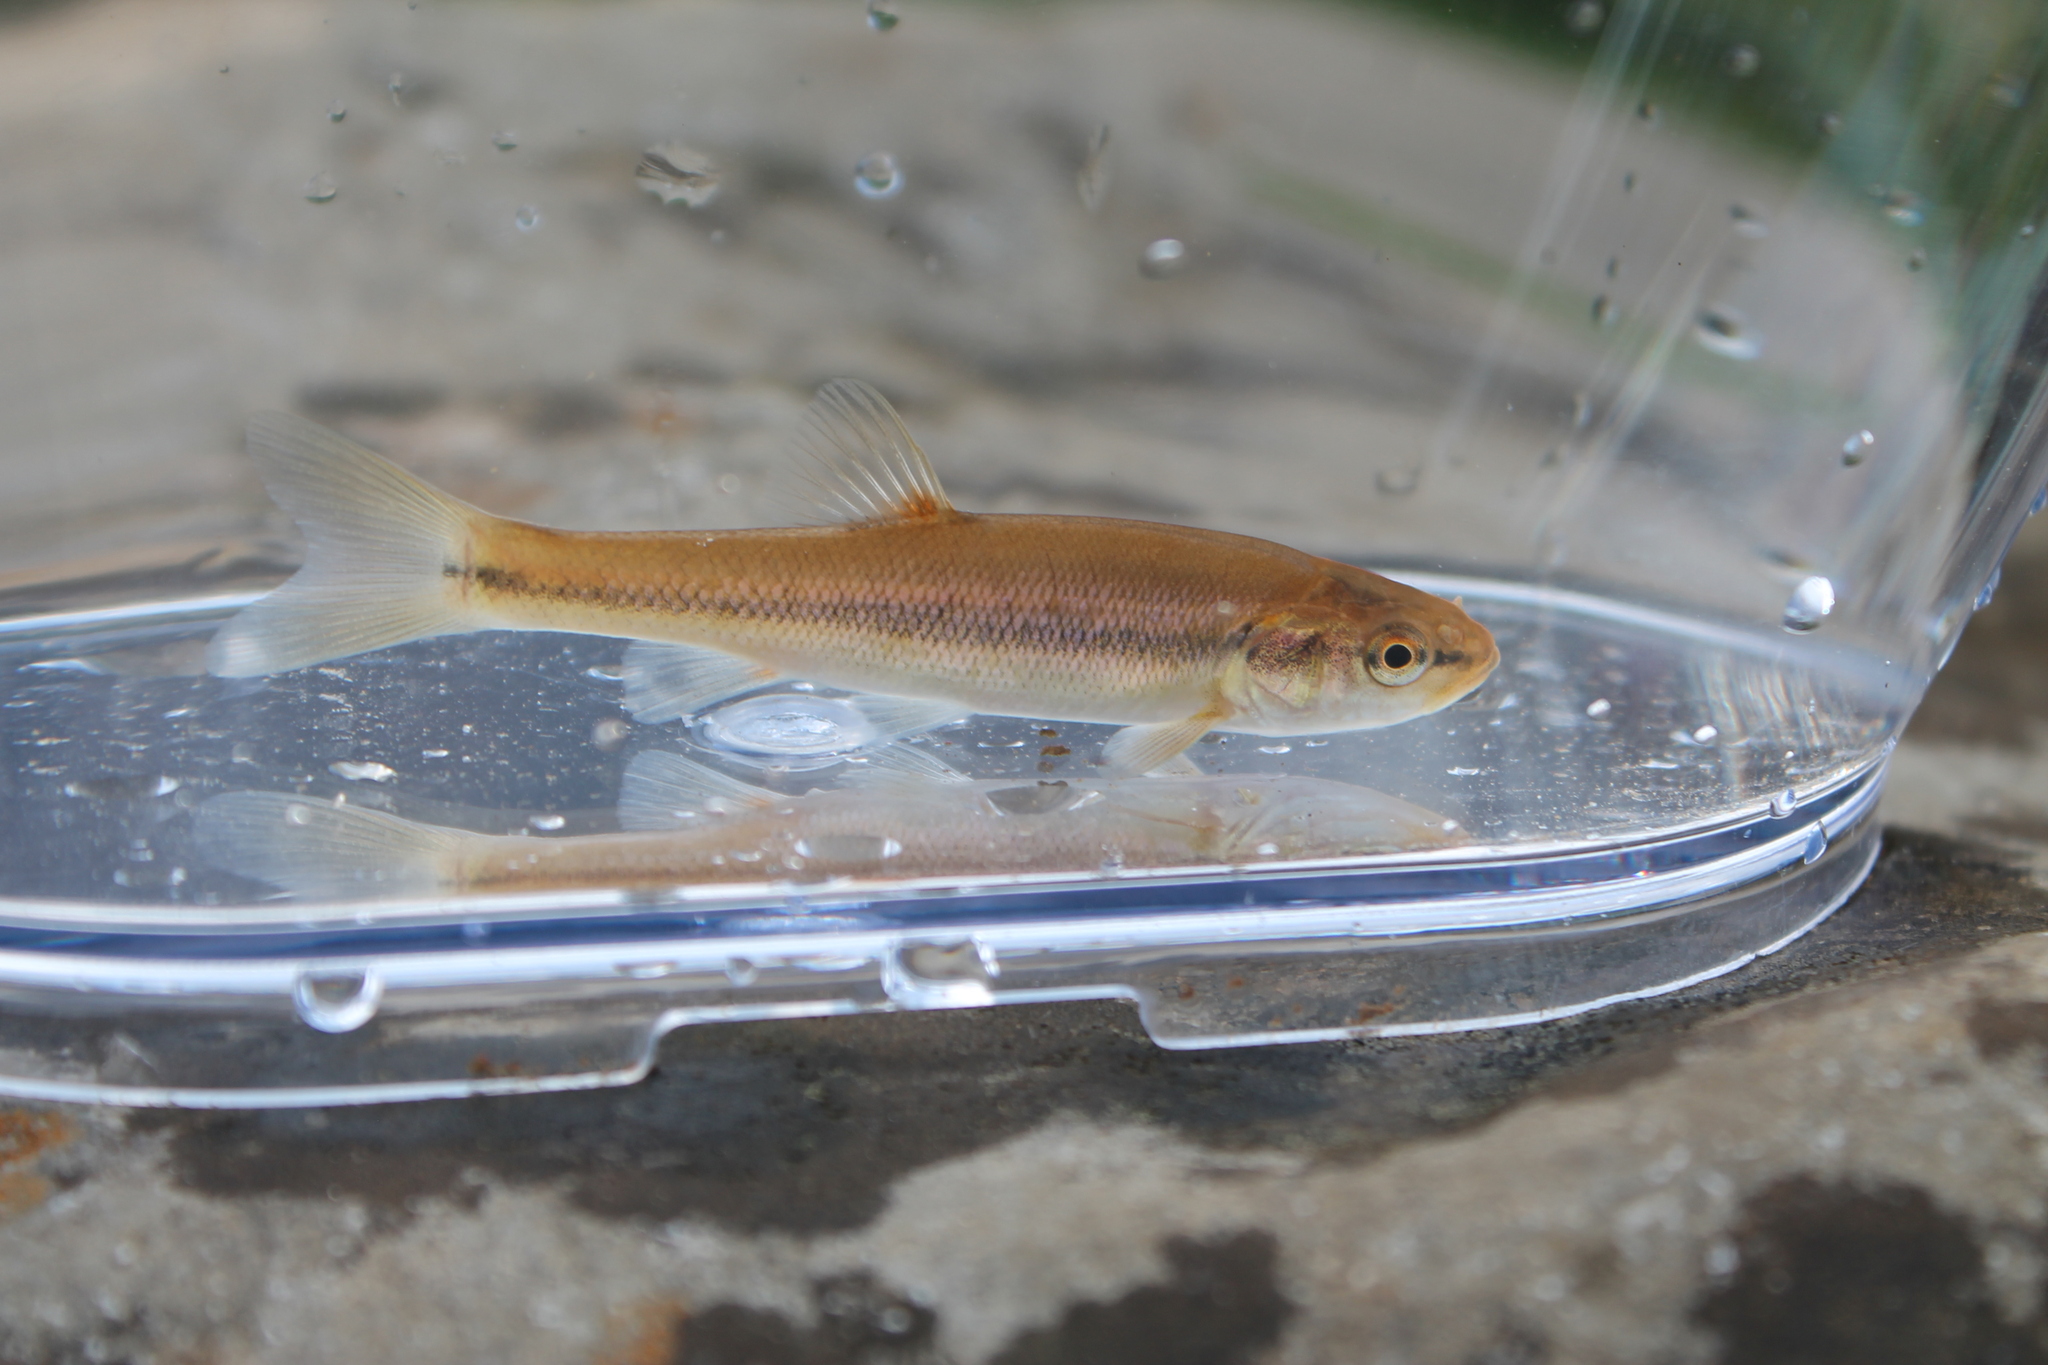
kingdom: Animalia
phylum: Chordata
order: Cypriniformes
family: Cyprinidae
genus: Semotilus
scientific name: Semotilus atromaculatus
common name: Creek chub
